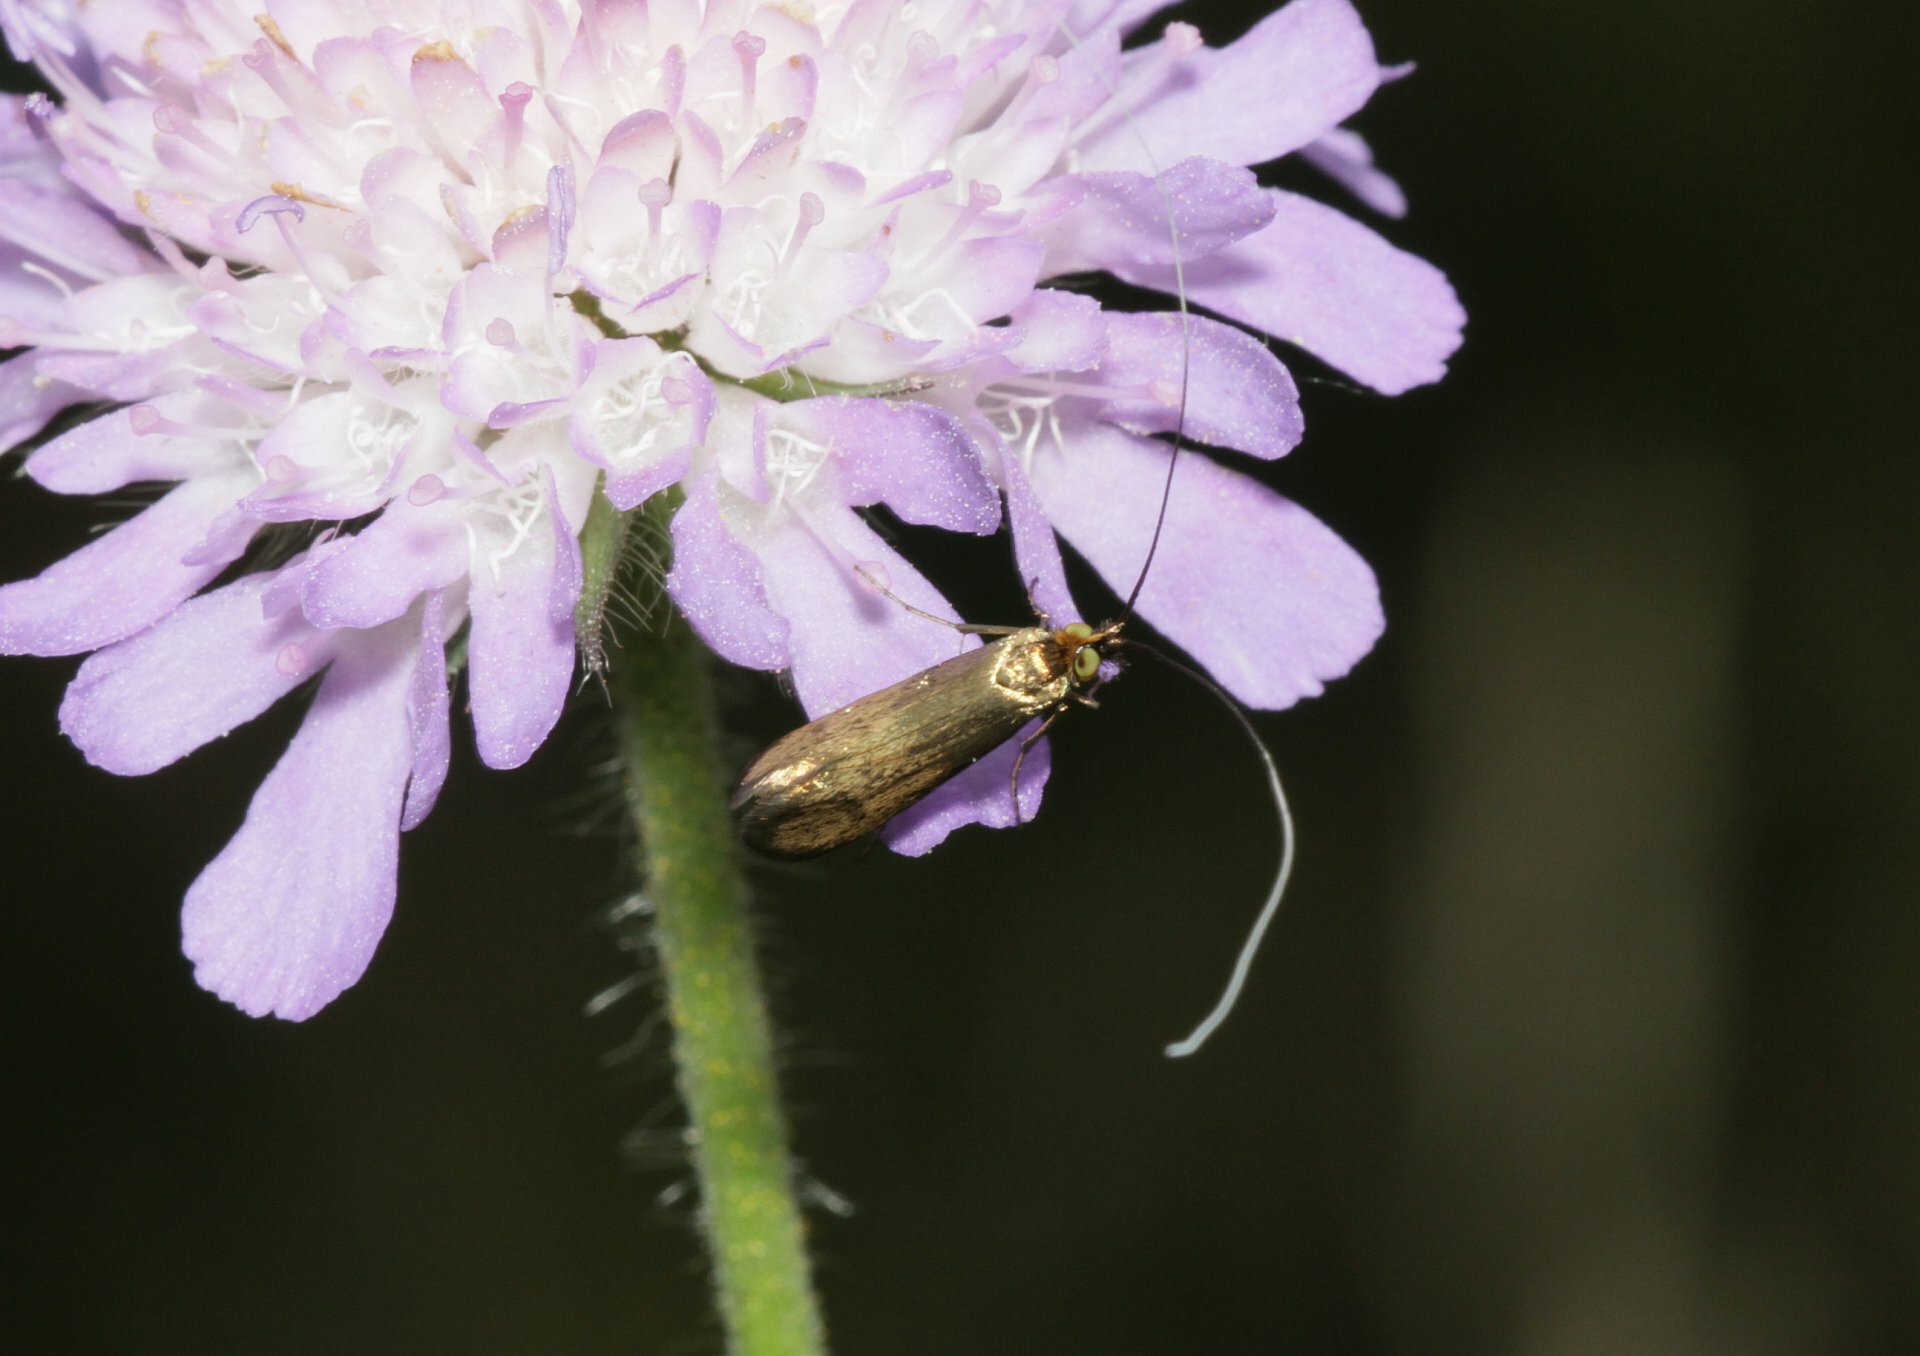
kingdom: Animalia
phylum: Arthropoda
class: Insecta
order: Lepidoptera
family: Adelidae
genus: Nemophora
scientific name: Nemophora metallica
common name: Brassy long-horn
